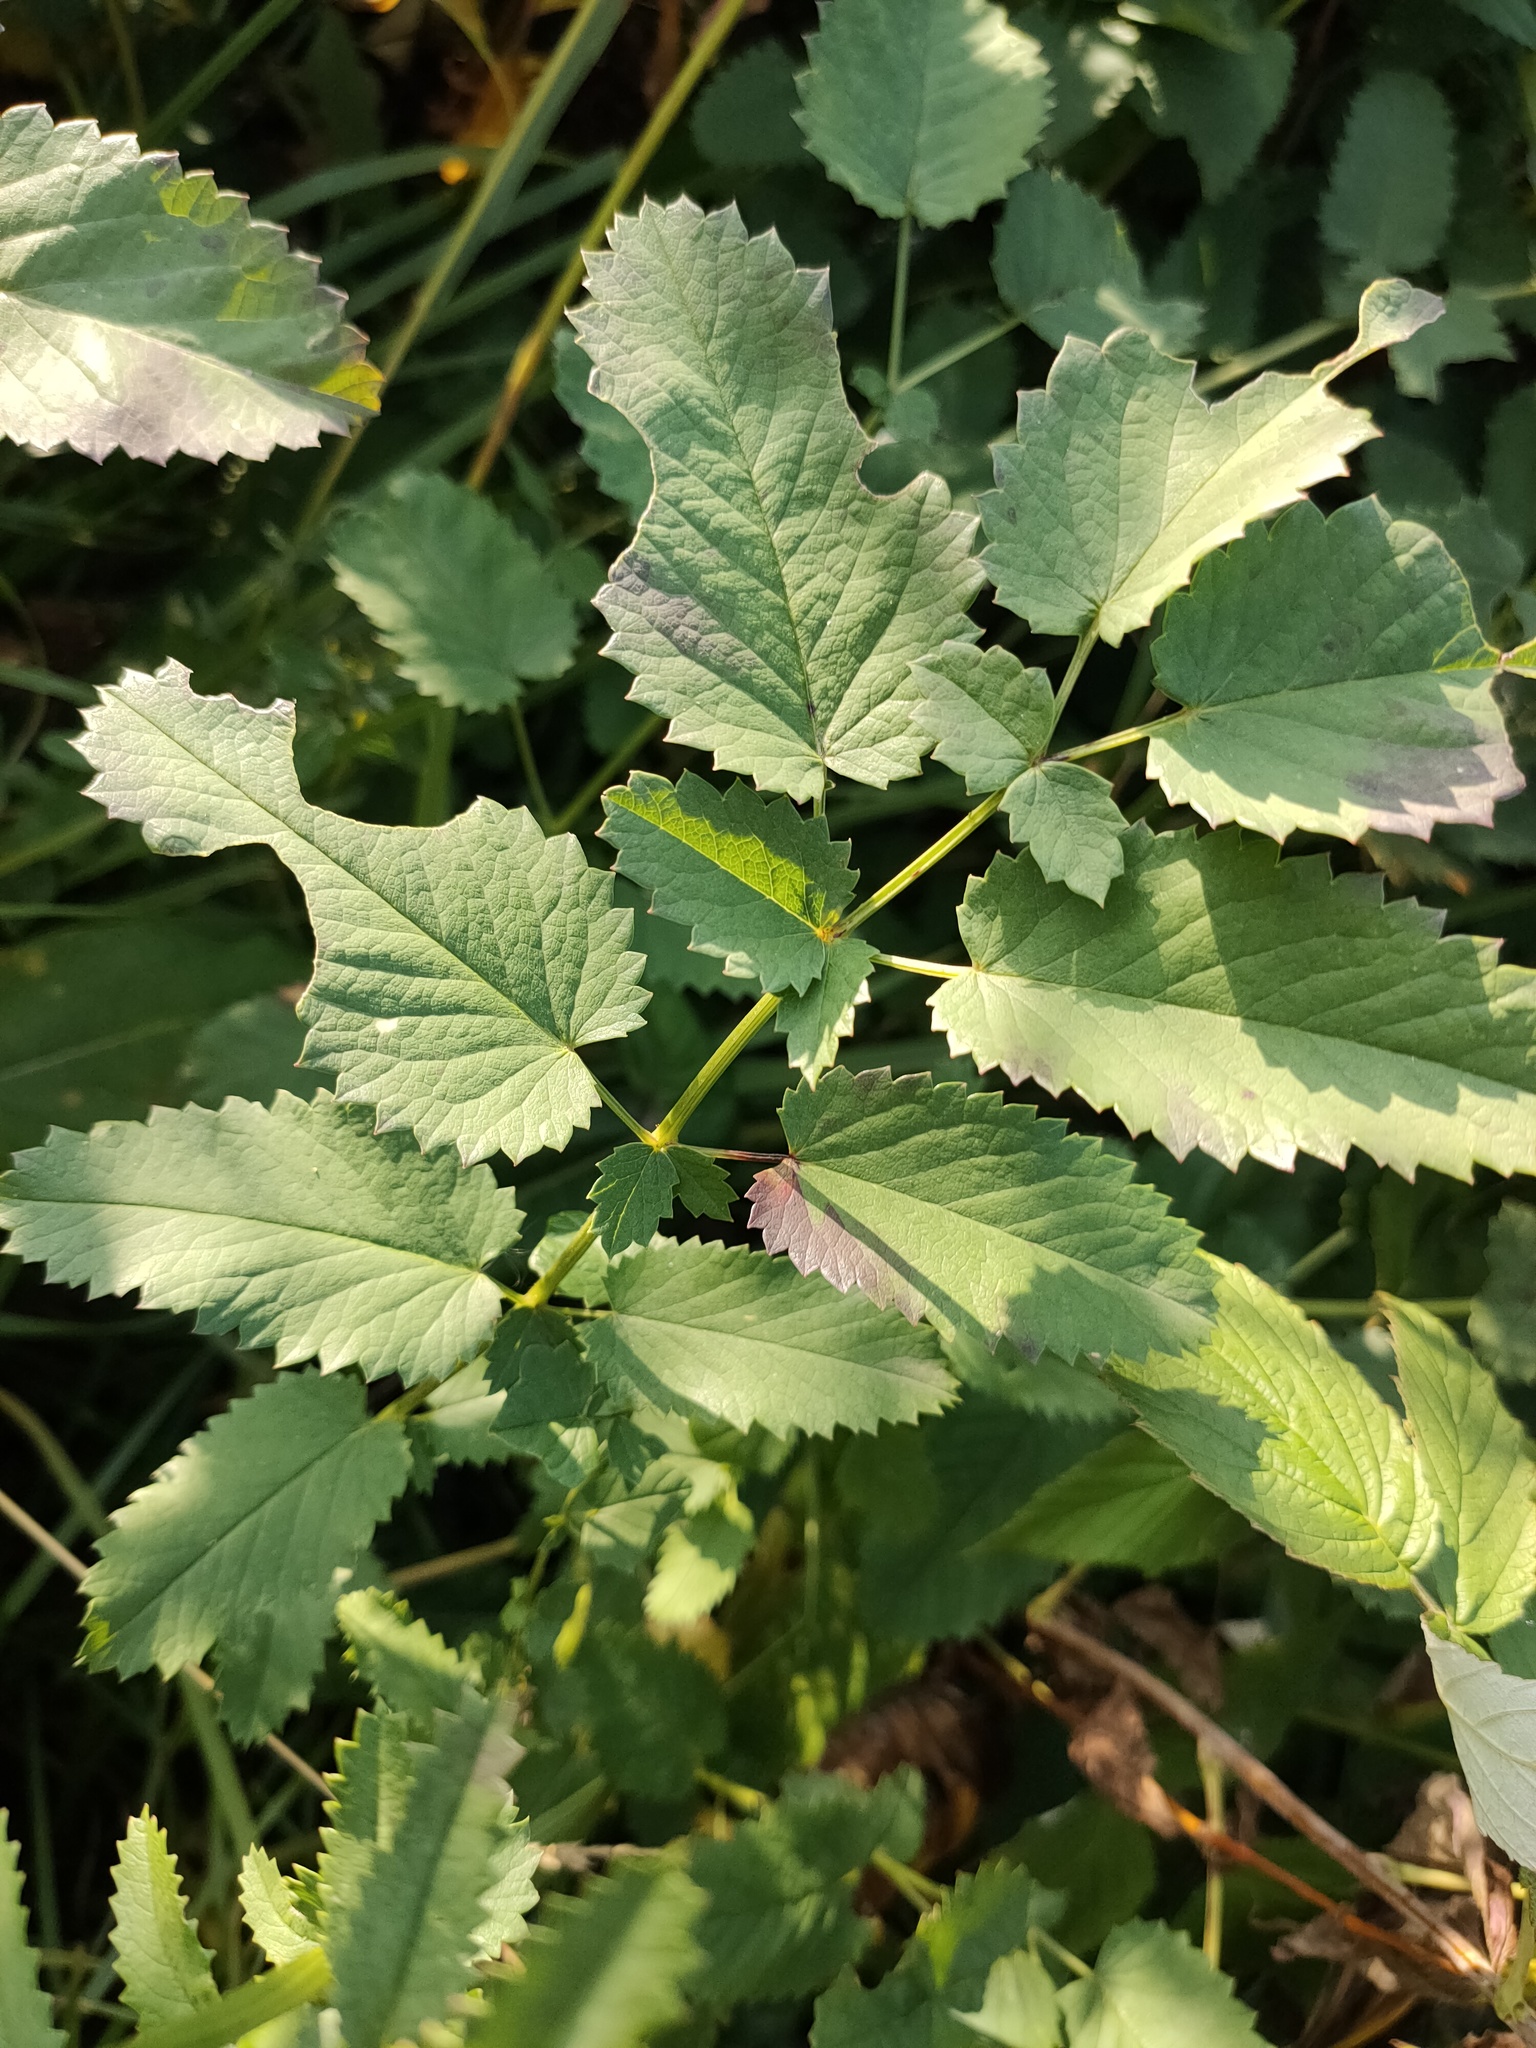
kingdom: Plantae
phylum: Tracheophyta
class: Magnoliopsida
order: Rosales
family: Rosaceae
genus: Sanguisorba
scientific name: Sanguisorba officinalis
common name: Great burnet
